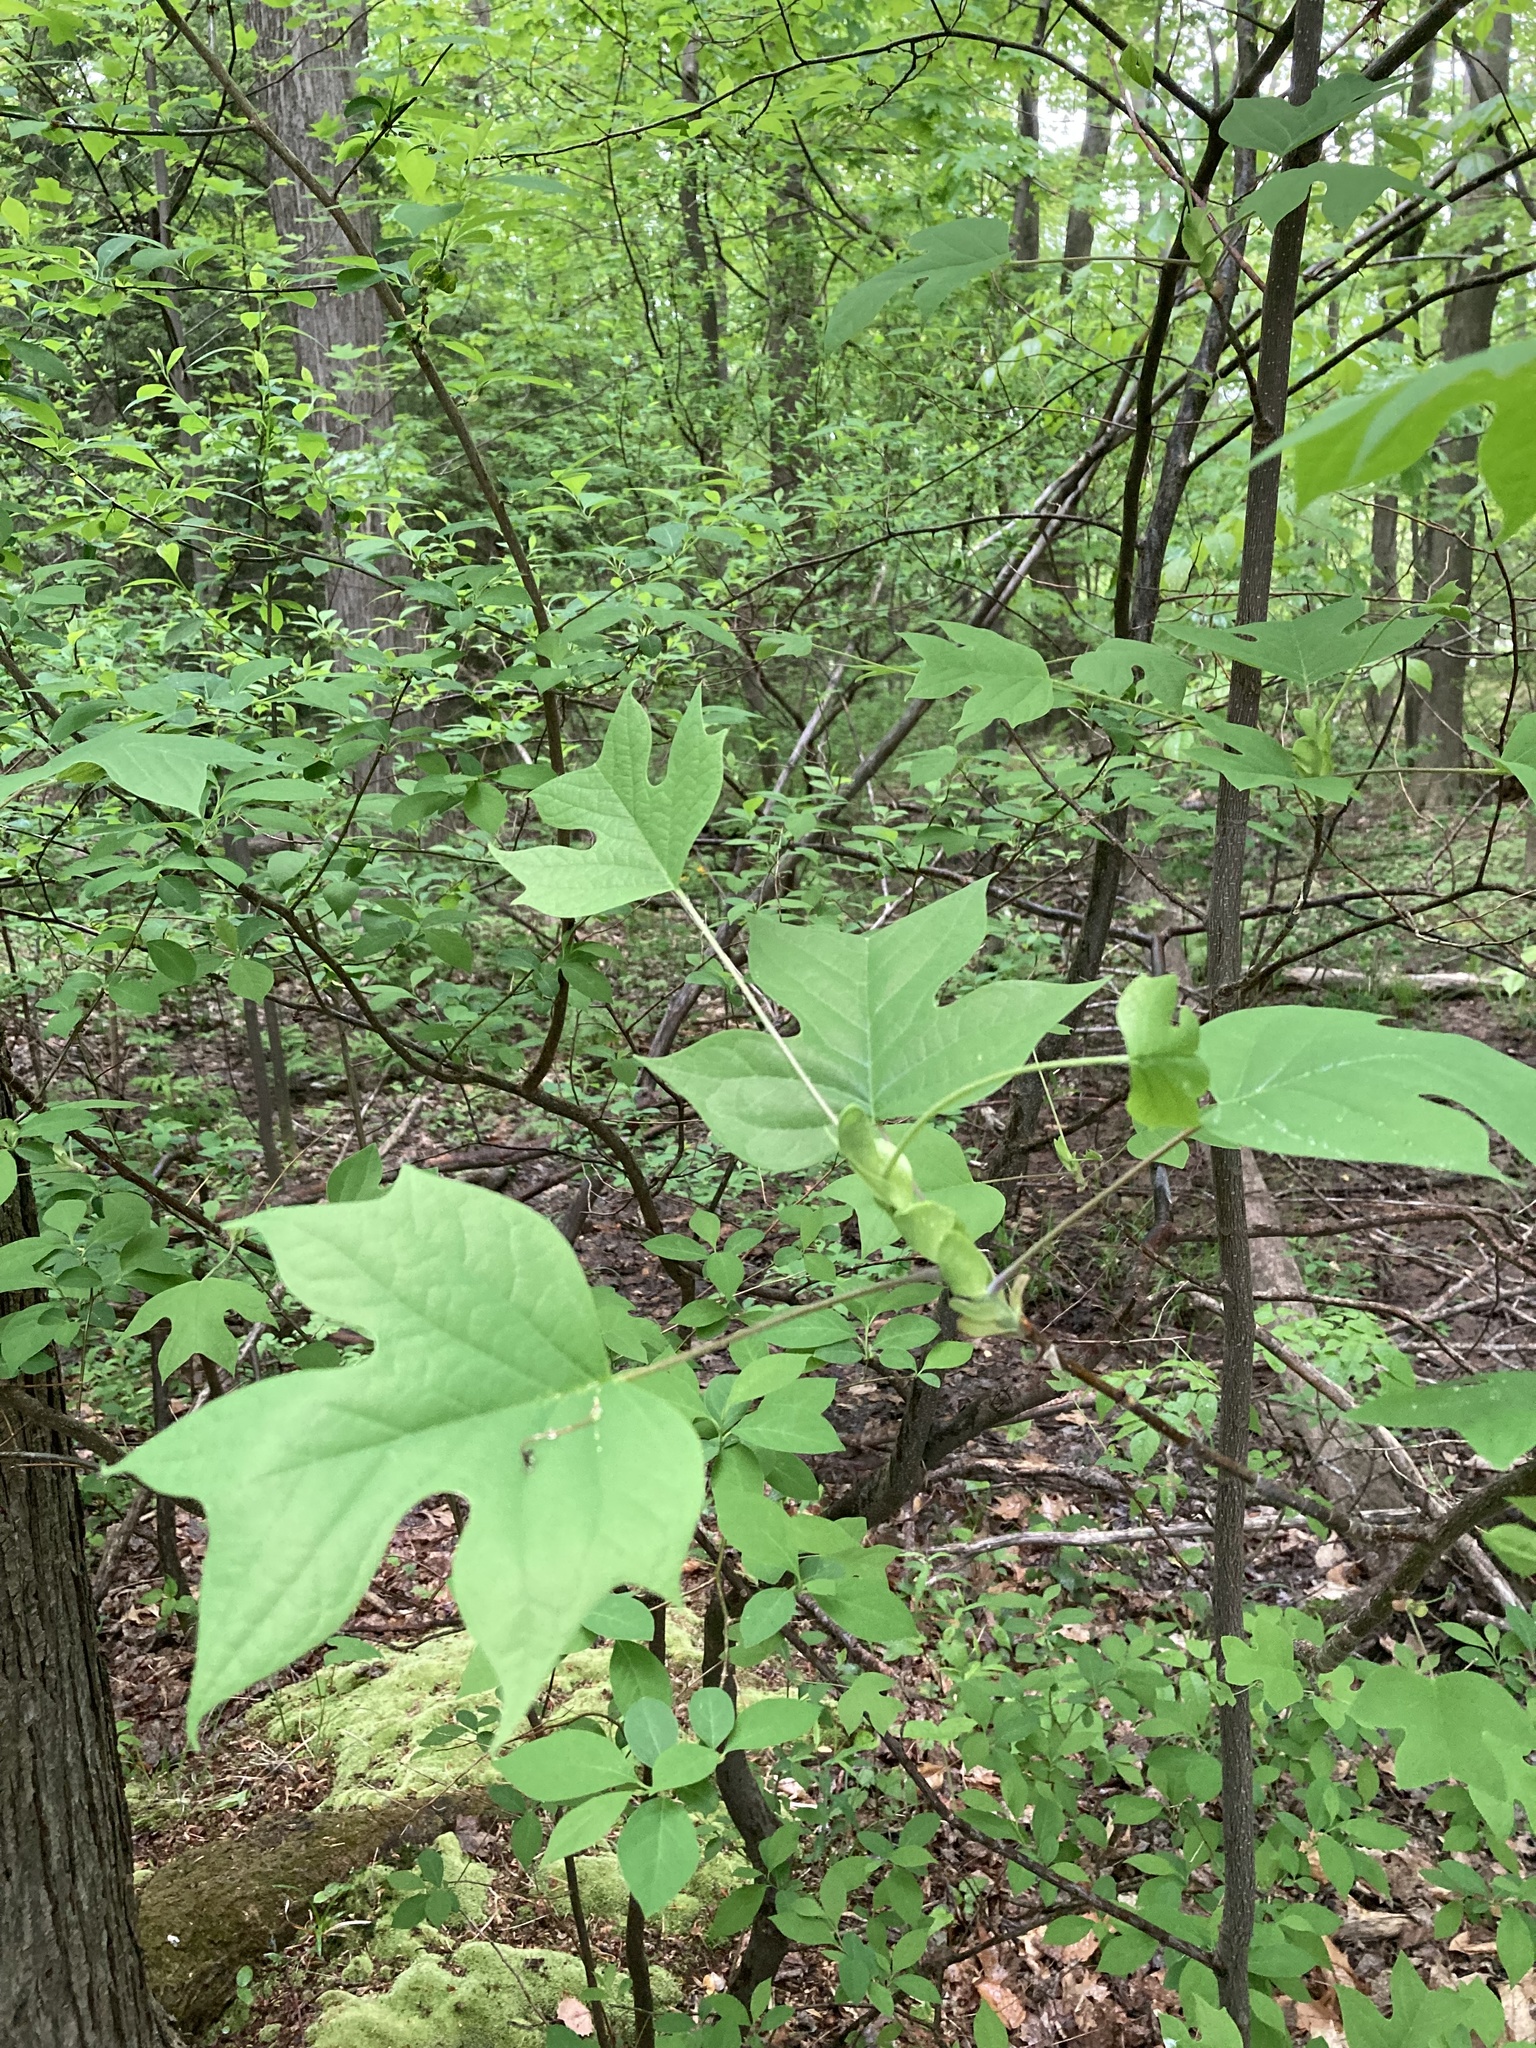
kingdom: Plantae
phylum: Tracheophyta
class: Magnoliopsida
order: Magnoliales
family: Magnoliaceae
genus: Liriodendron
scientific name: Liriodendron tulipifera
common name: Tulip tree
